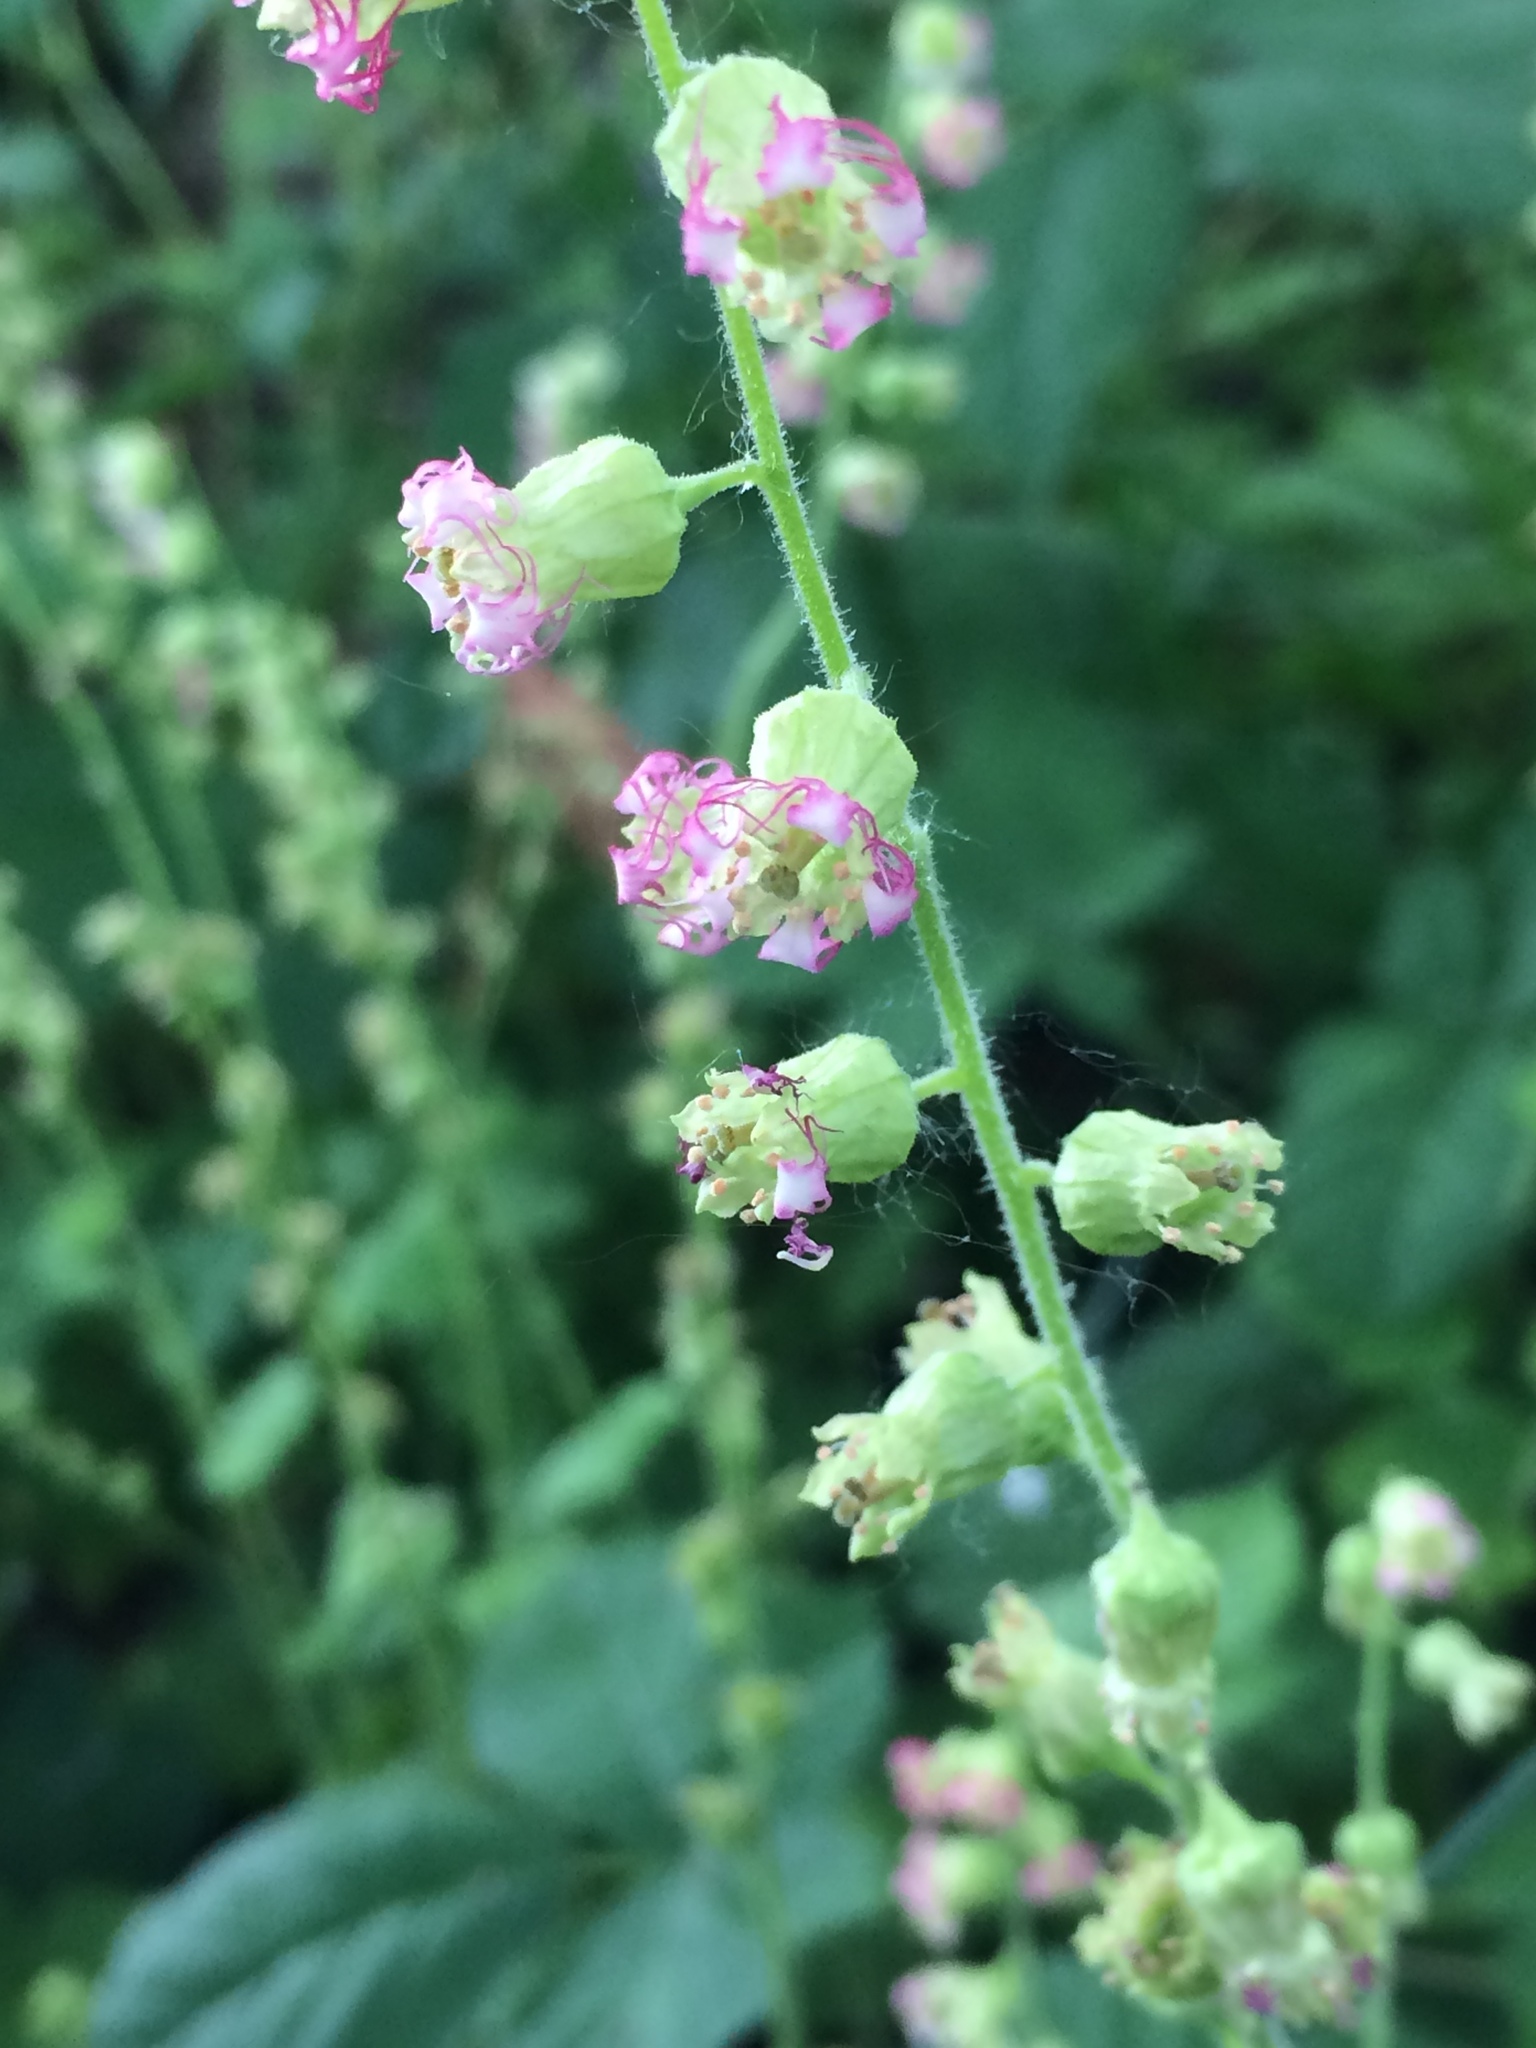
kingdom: Plantae
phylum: Tracheophyta
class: Magnoliopsida
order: Saxifragales
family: Saxifragaceae
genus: Tellima
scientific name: Tellima grandiflora
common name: Fringecups
